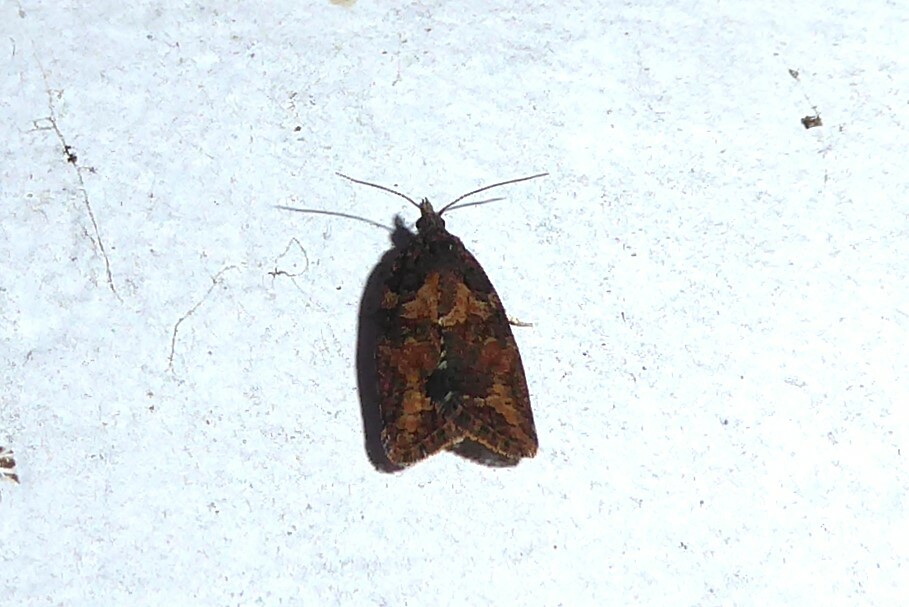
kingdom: Animalia
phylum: Arthropoda
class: Insecta
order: Lepidoptera
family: Tortricidae
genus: Capua
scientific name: Capua intractana
